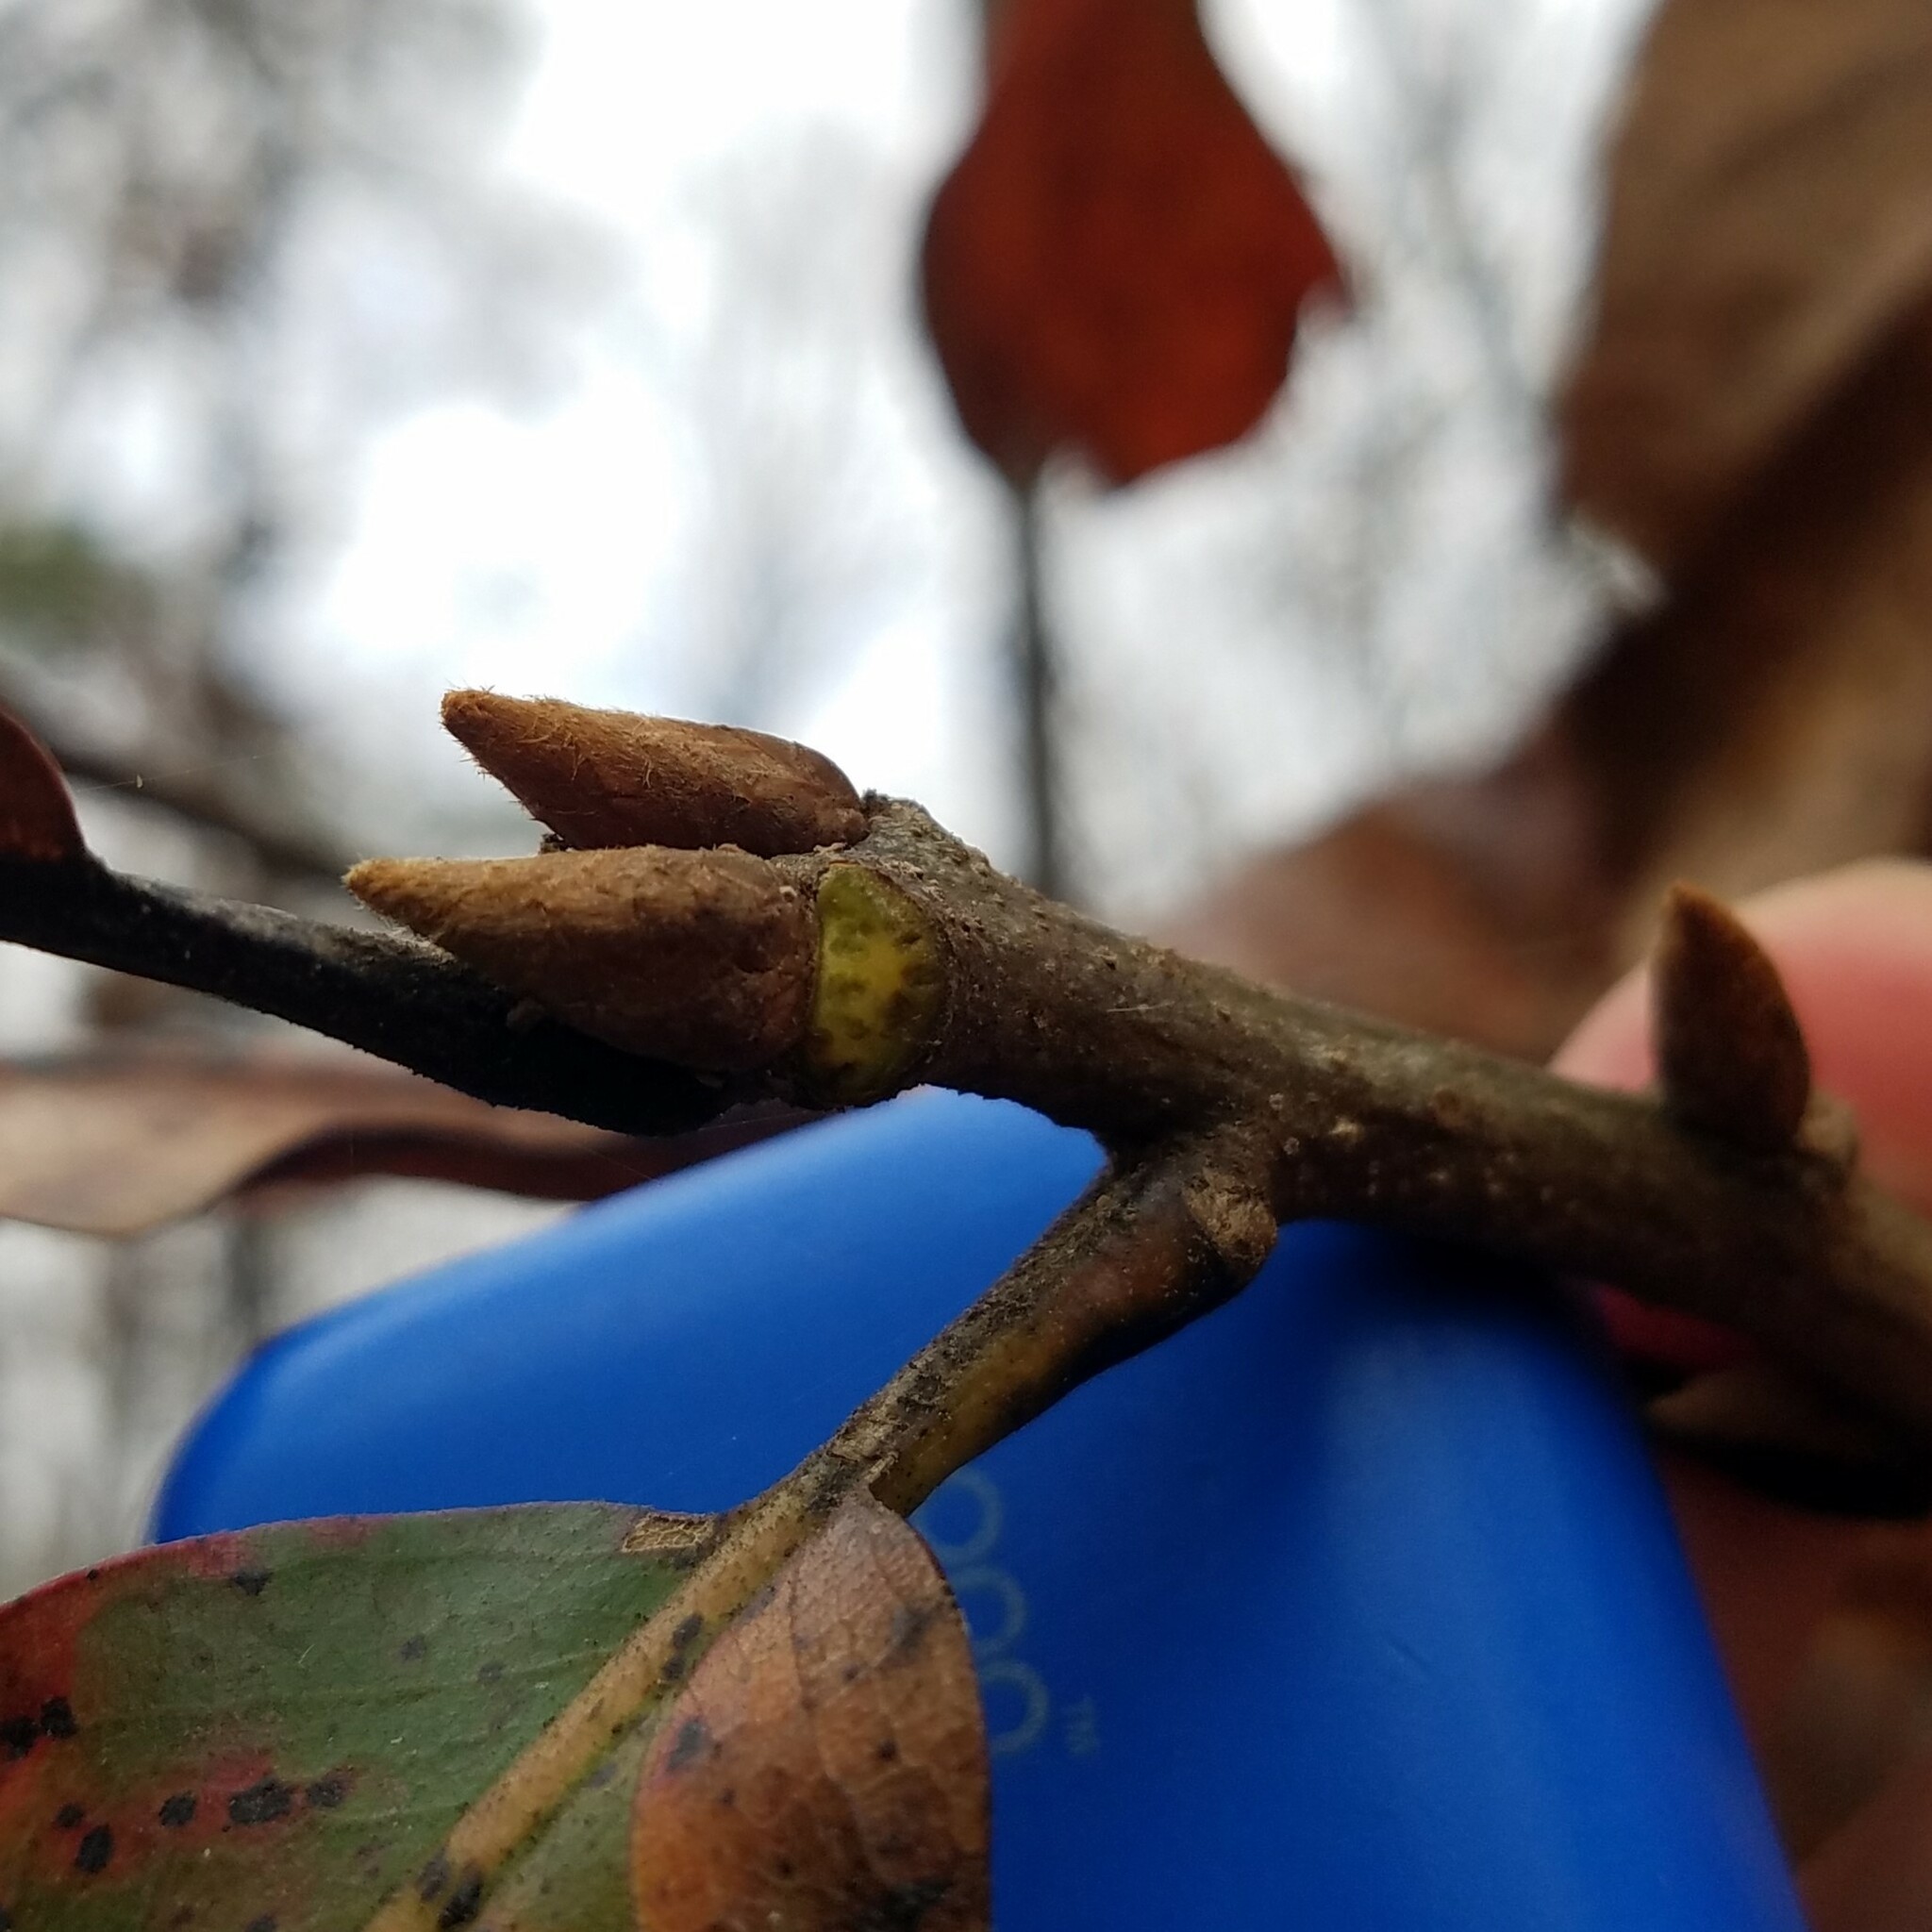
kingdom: Plantae
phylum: Tracheophyta
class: Magnoliopsida
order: Fagales
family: Fagaceae
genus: Quercus
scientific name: Quercus marilandica
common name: Blackjack oak
